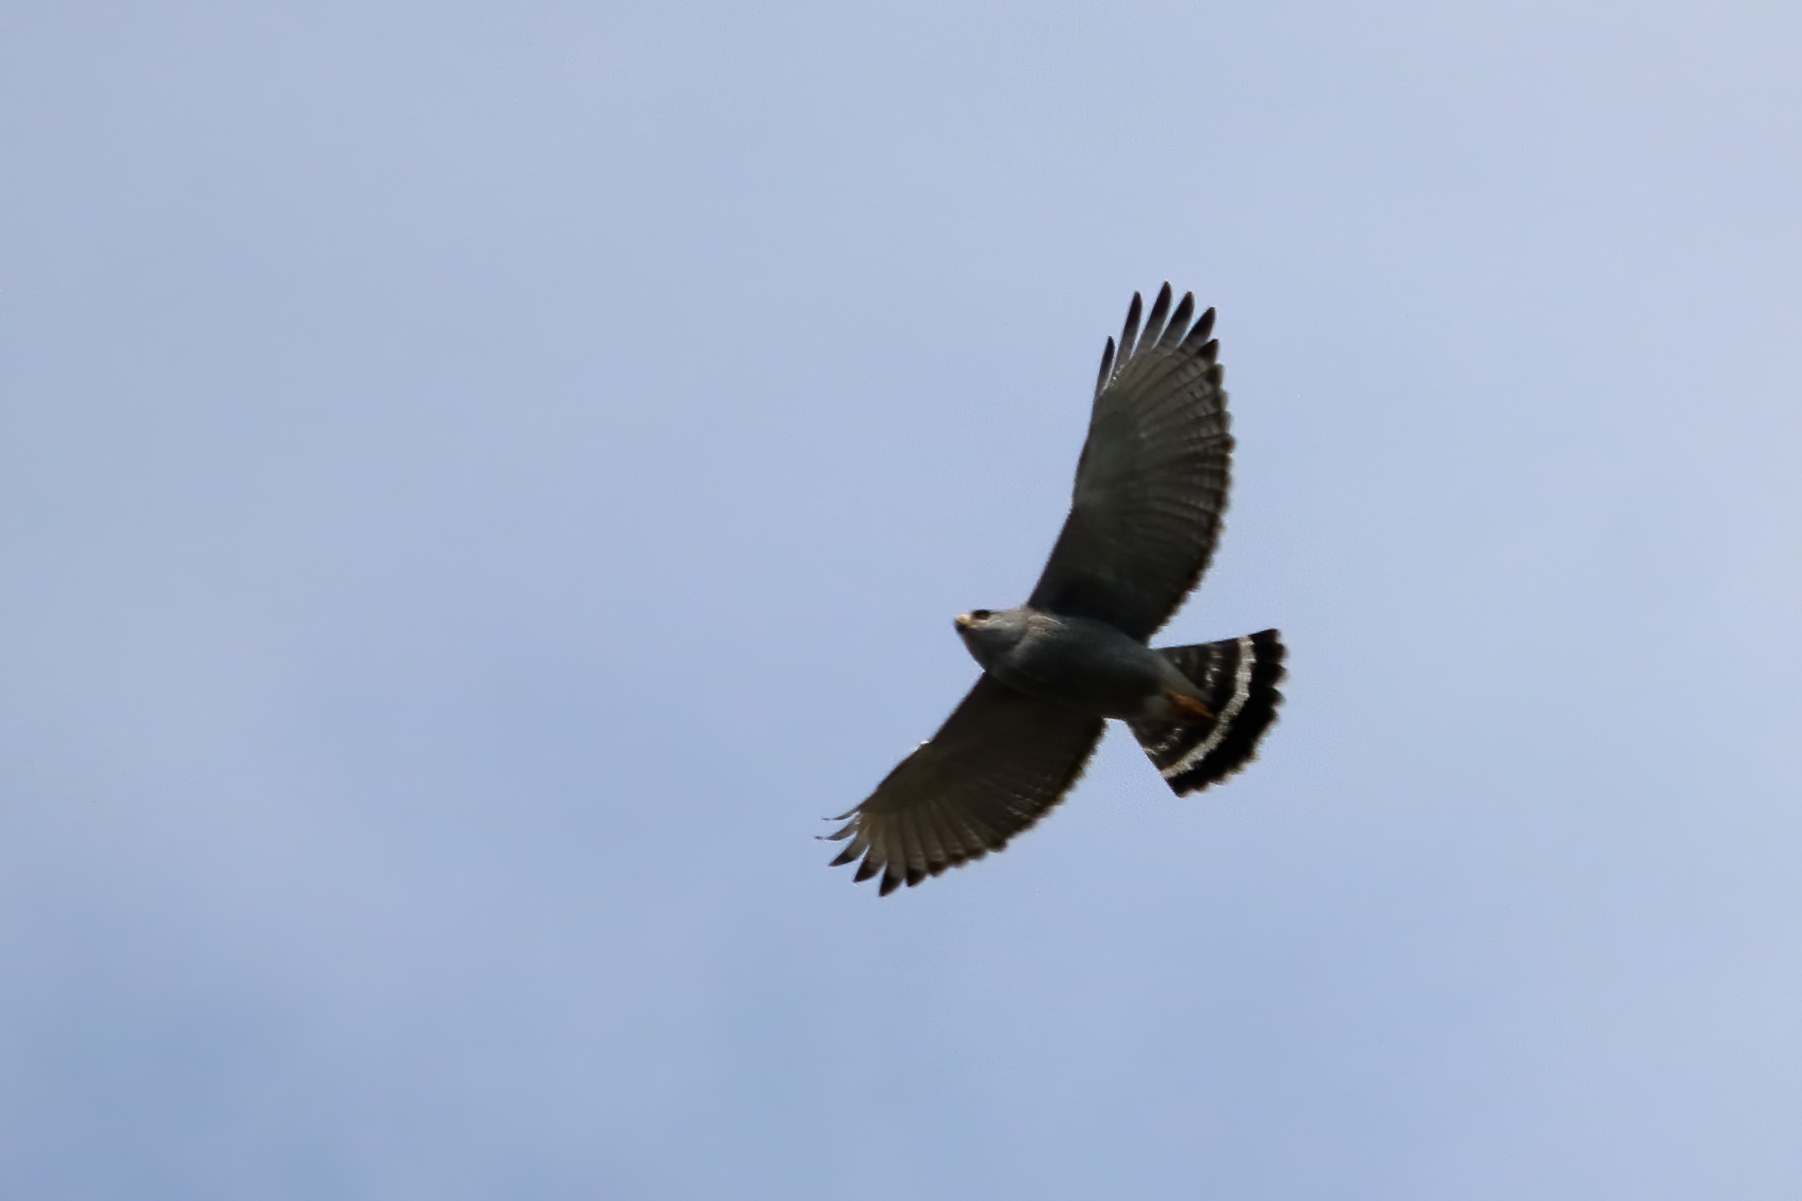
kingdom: Animalia
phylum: Chordata
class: Aves
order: Accipitriformes
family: Accipitridae
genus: Buteo
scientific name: Buteo nitidus
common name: Grey-lined hawk
